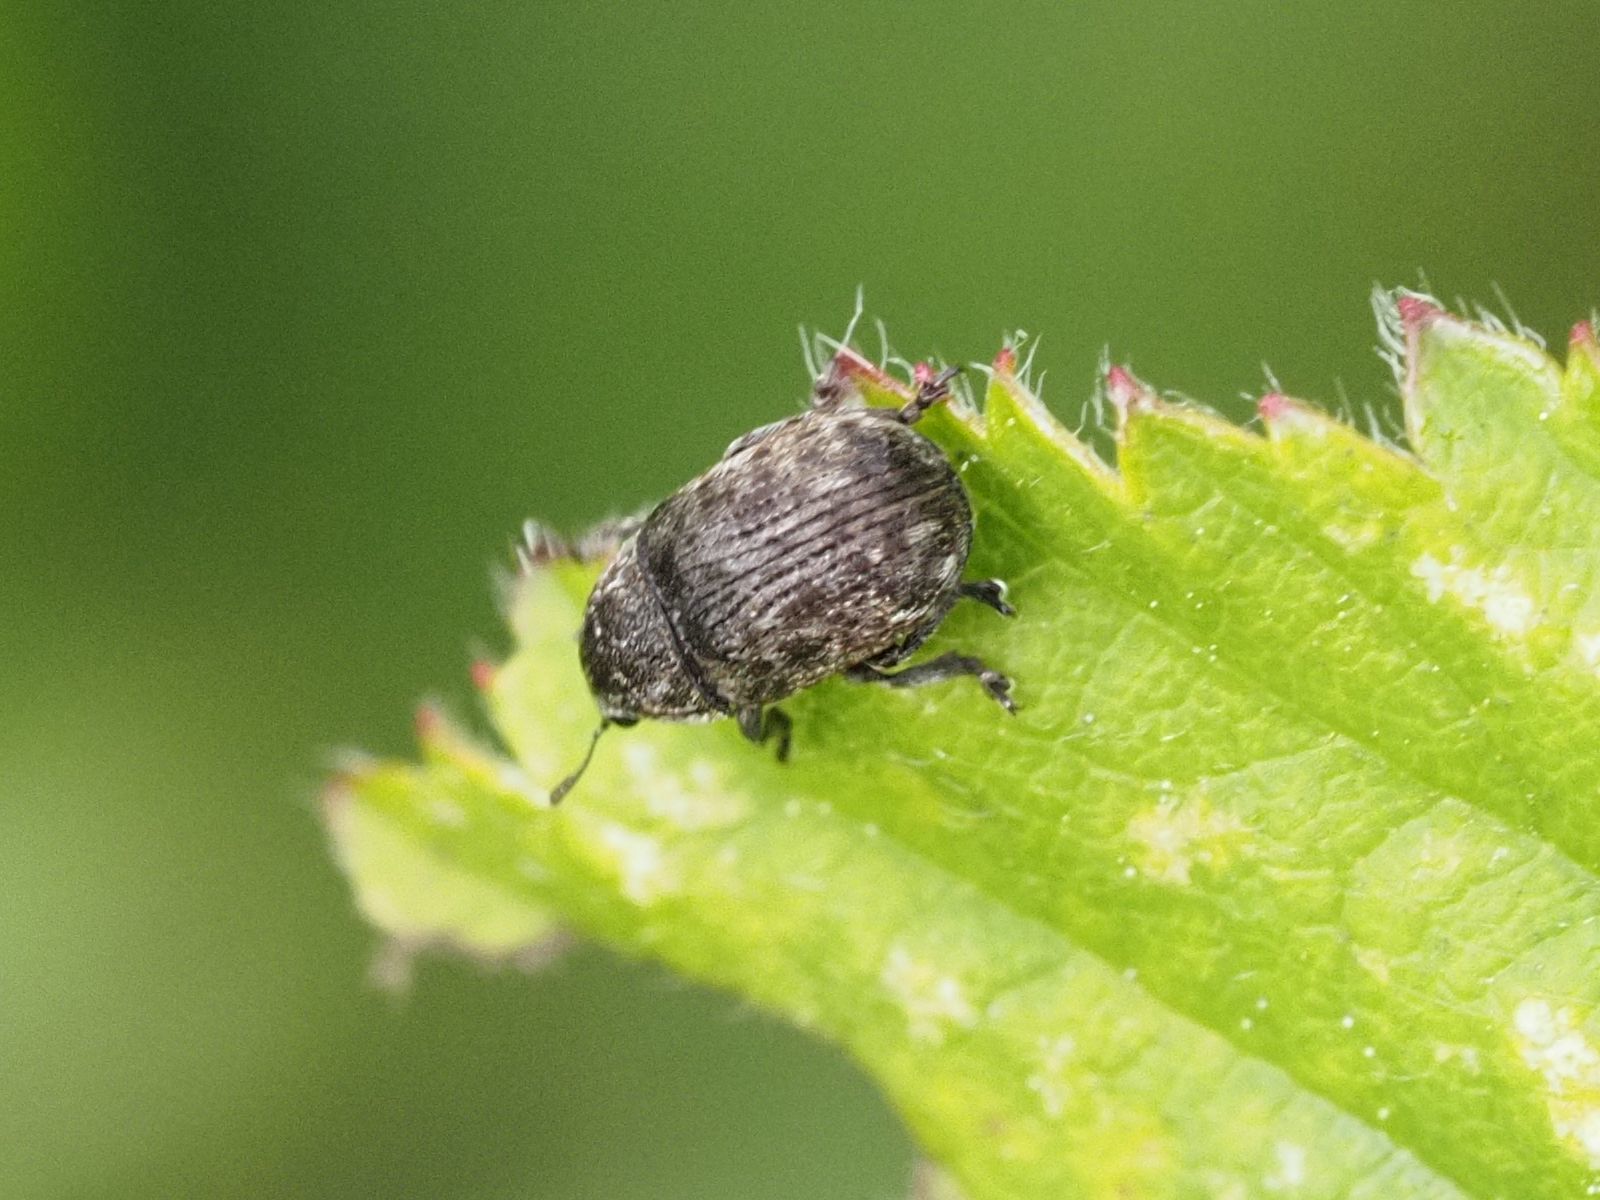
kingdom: Animalia
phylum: Arthropoda
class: Insecta
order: Coleoptera
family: Anthribidae
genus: Anthribus
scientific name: Anthribus nebulosus
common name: Fungus weevil
